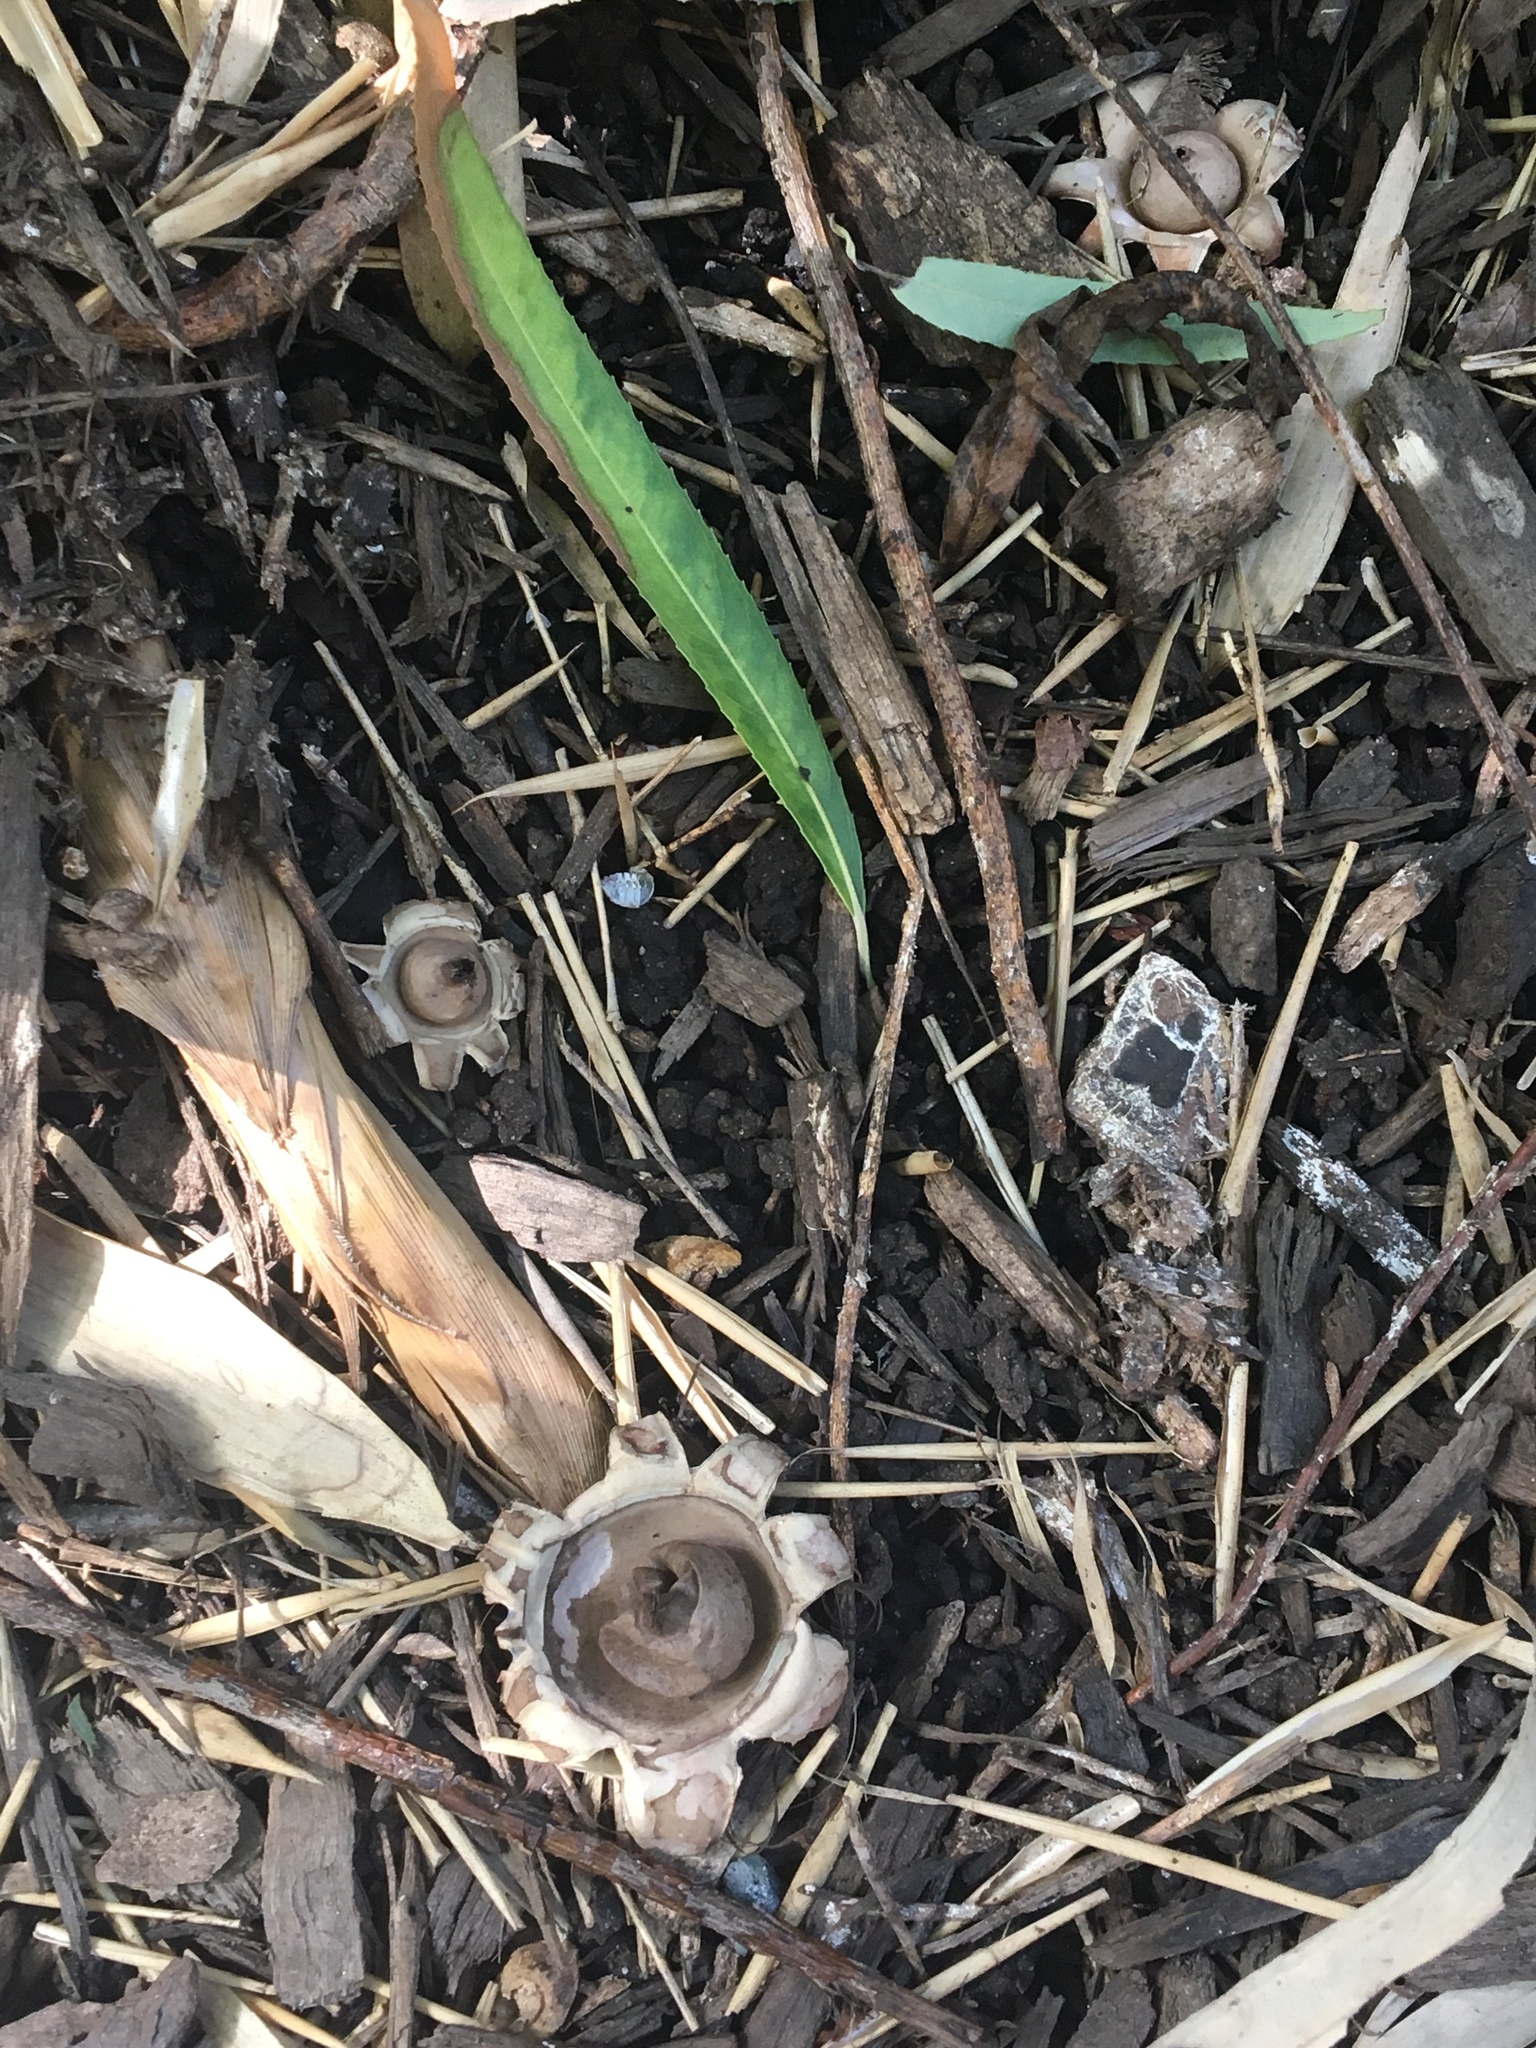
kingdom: Fungi
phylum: Basidiomycota
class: Agaricomycetes
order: Geastrales
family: Geastraceae
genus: Geastrum
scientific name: Geastrum saccatum
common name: Rounded earthstar
